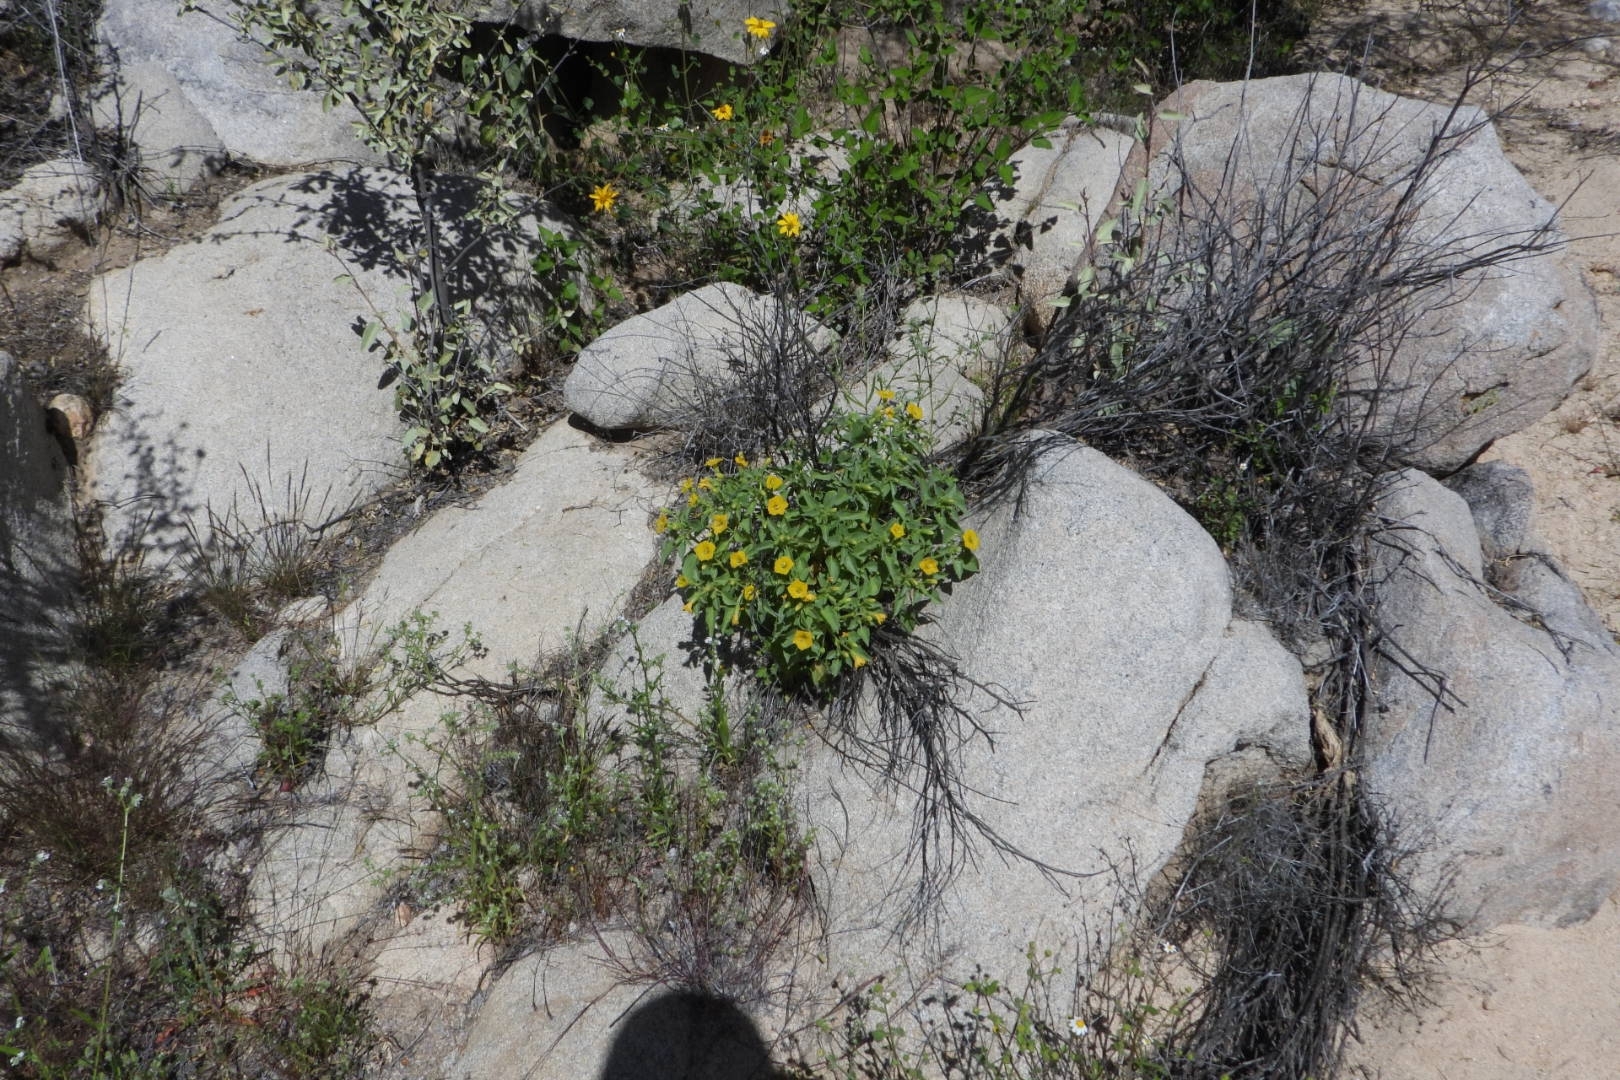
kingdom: Plantae
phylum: Tracheophyta
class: Magnoliopsida
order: Solanales
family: Solanaceae
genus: Physalis
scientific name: Physalis crassifolia
